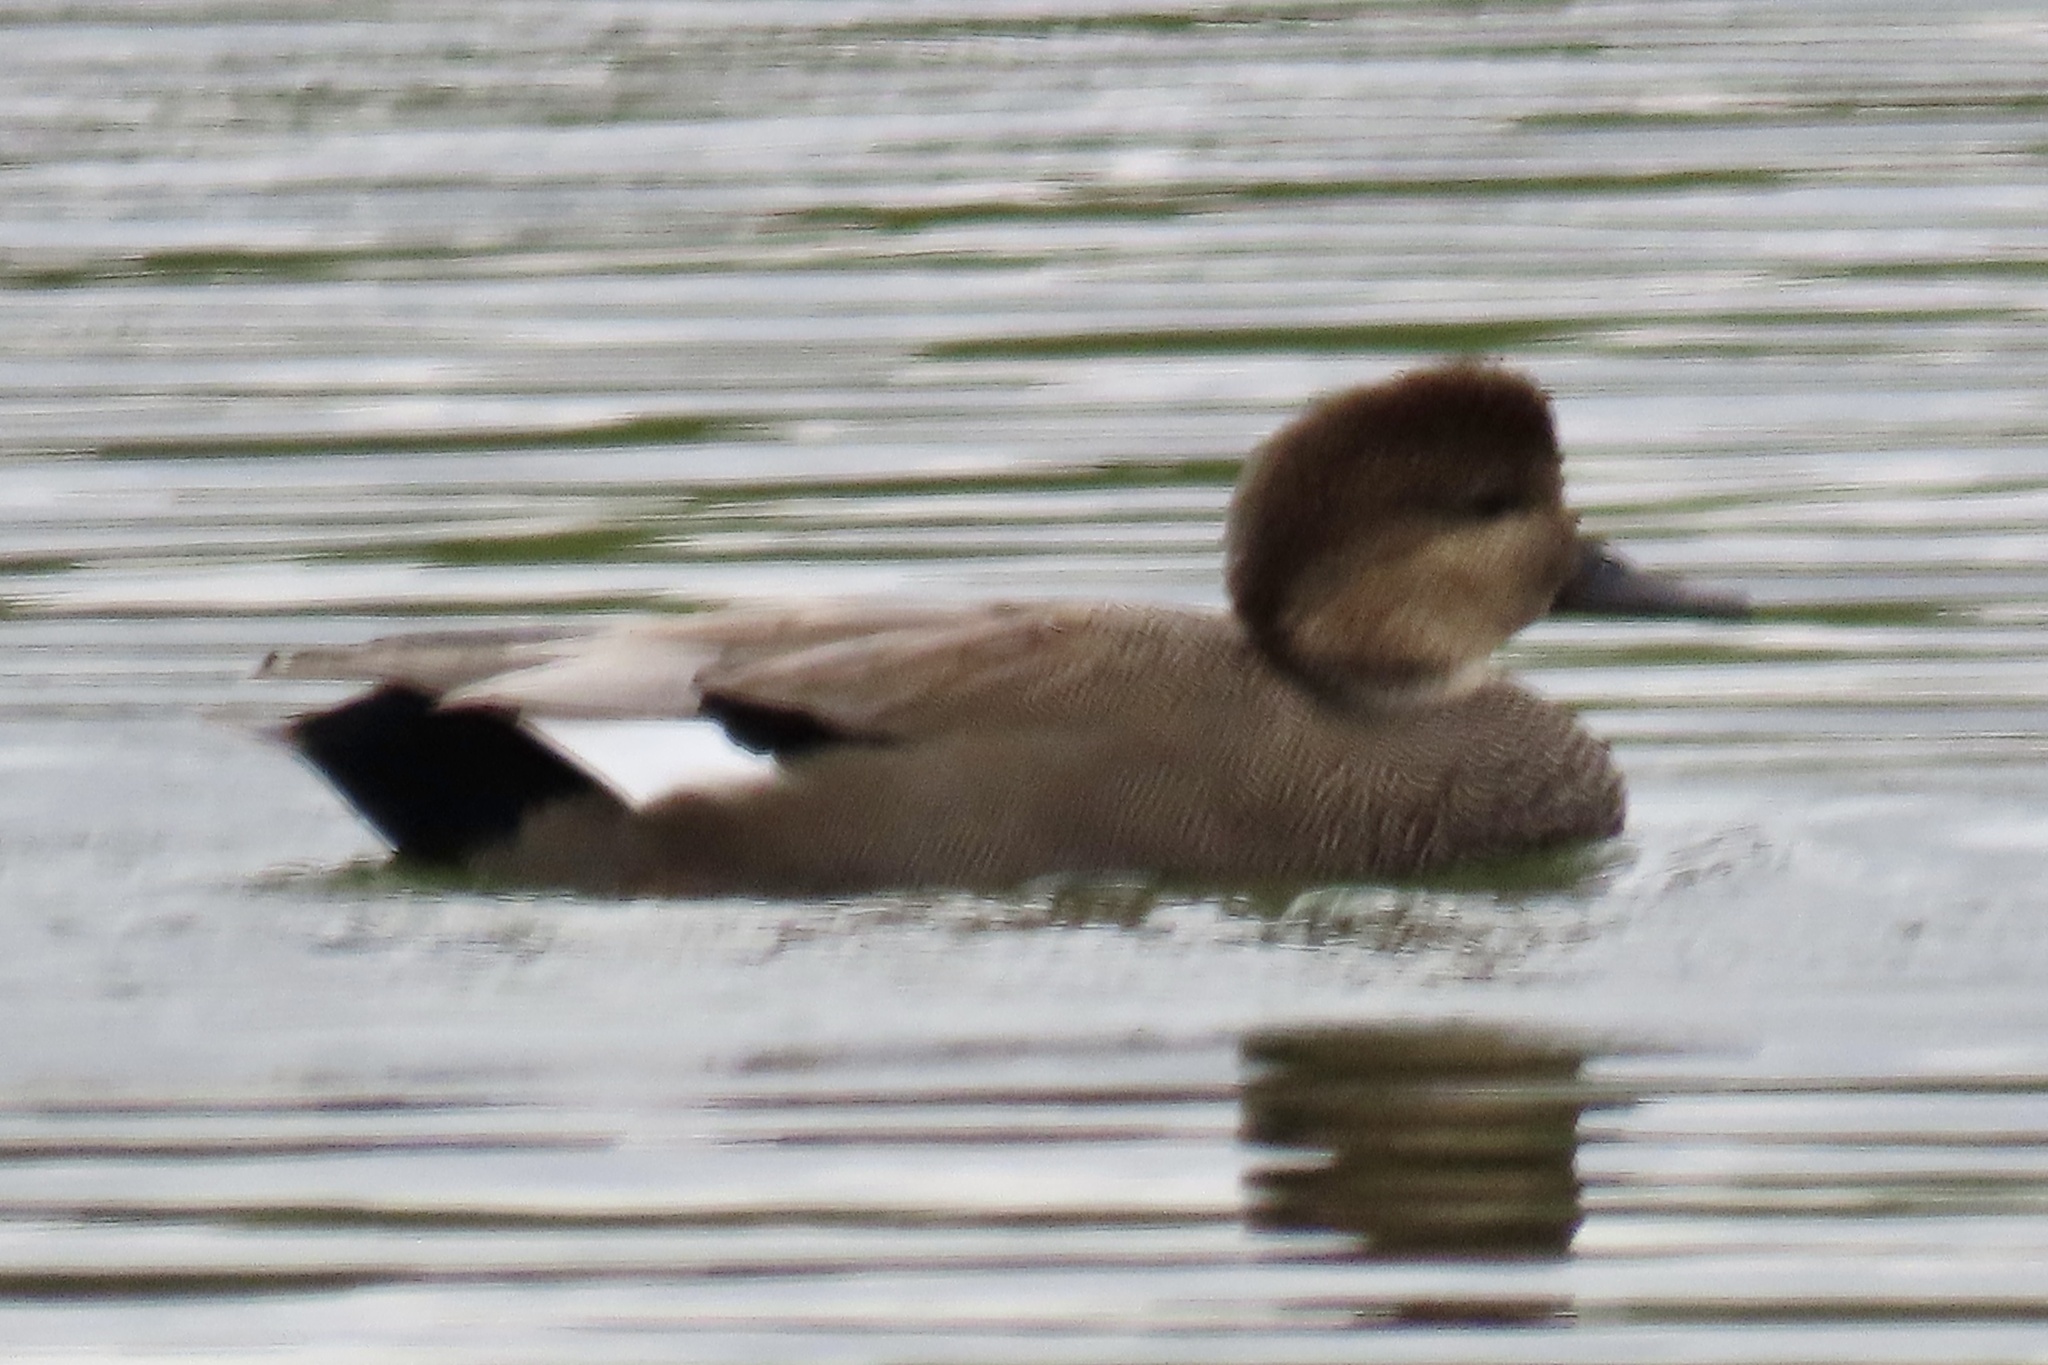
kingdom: Animalia
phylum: Chordata
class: Aves
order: Anseriformes
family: Anatidae
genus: Mareca
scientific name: Mareca strepera
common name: Gadwall
